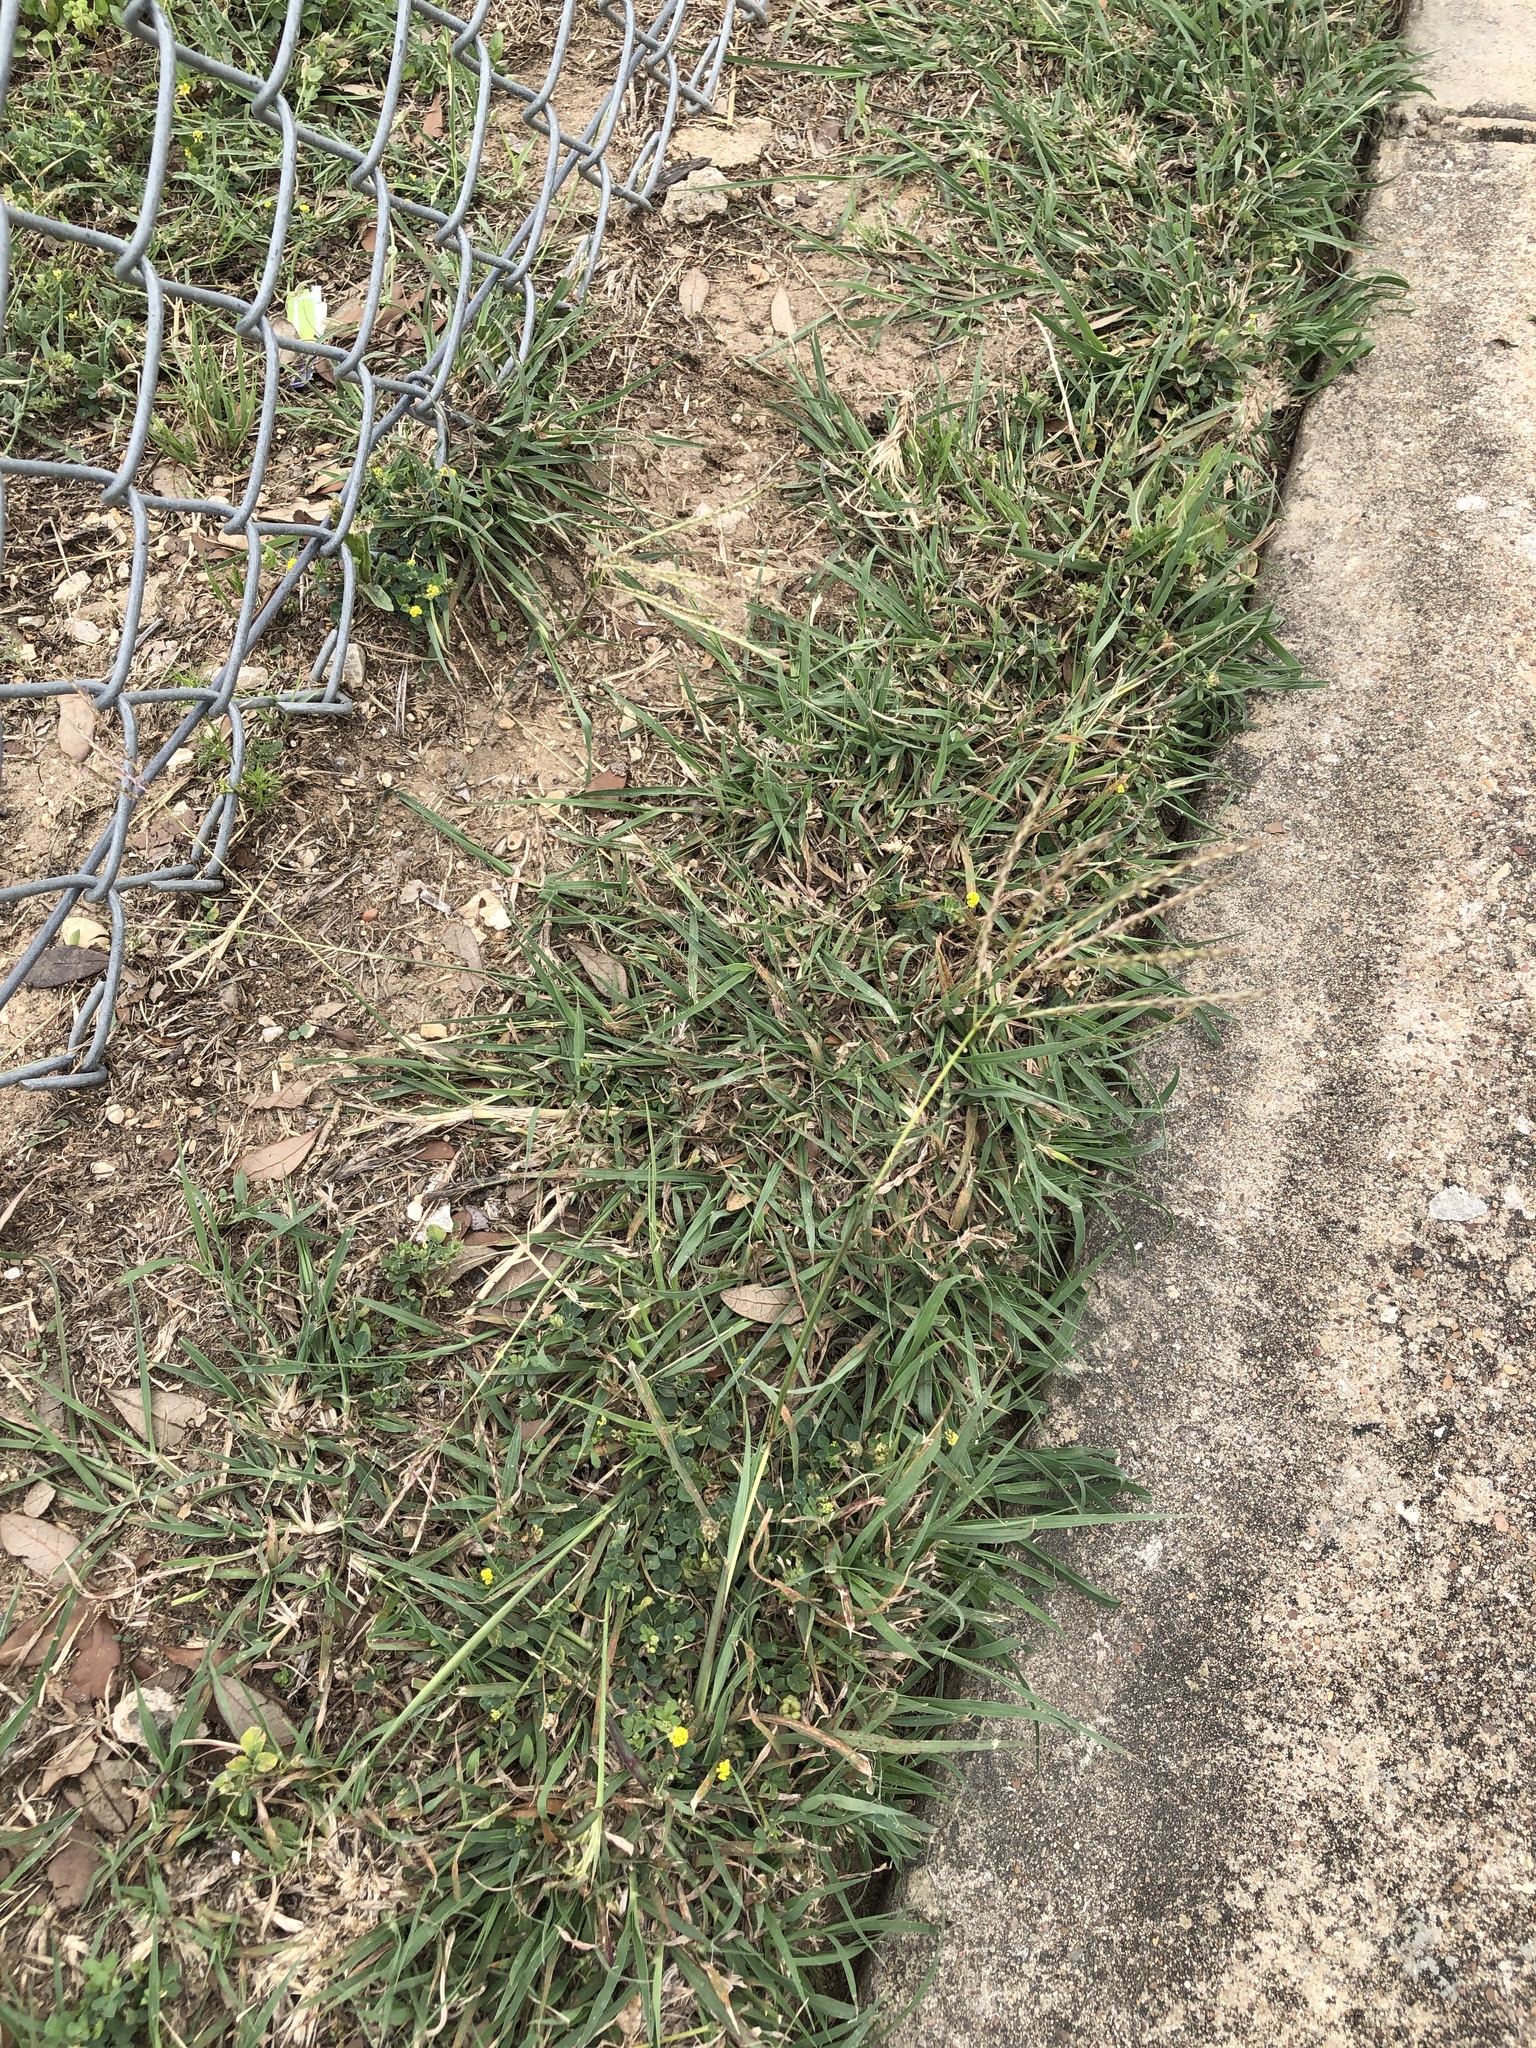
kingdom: Plantae
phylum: Tracheophyta
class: Liliopsida
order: Poales
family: Poaceae
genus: Bothriochloa
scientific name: Bothriochloa ischaemum
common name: Yellow bluestem
